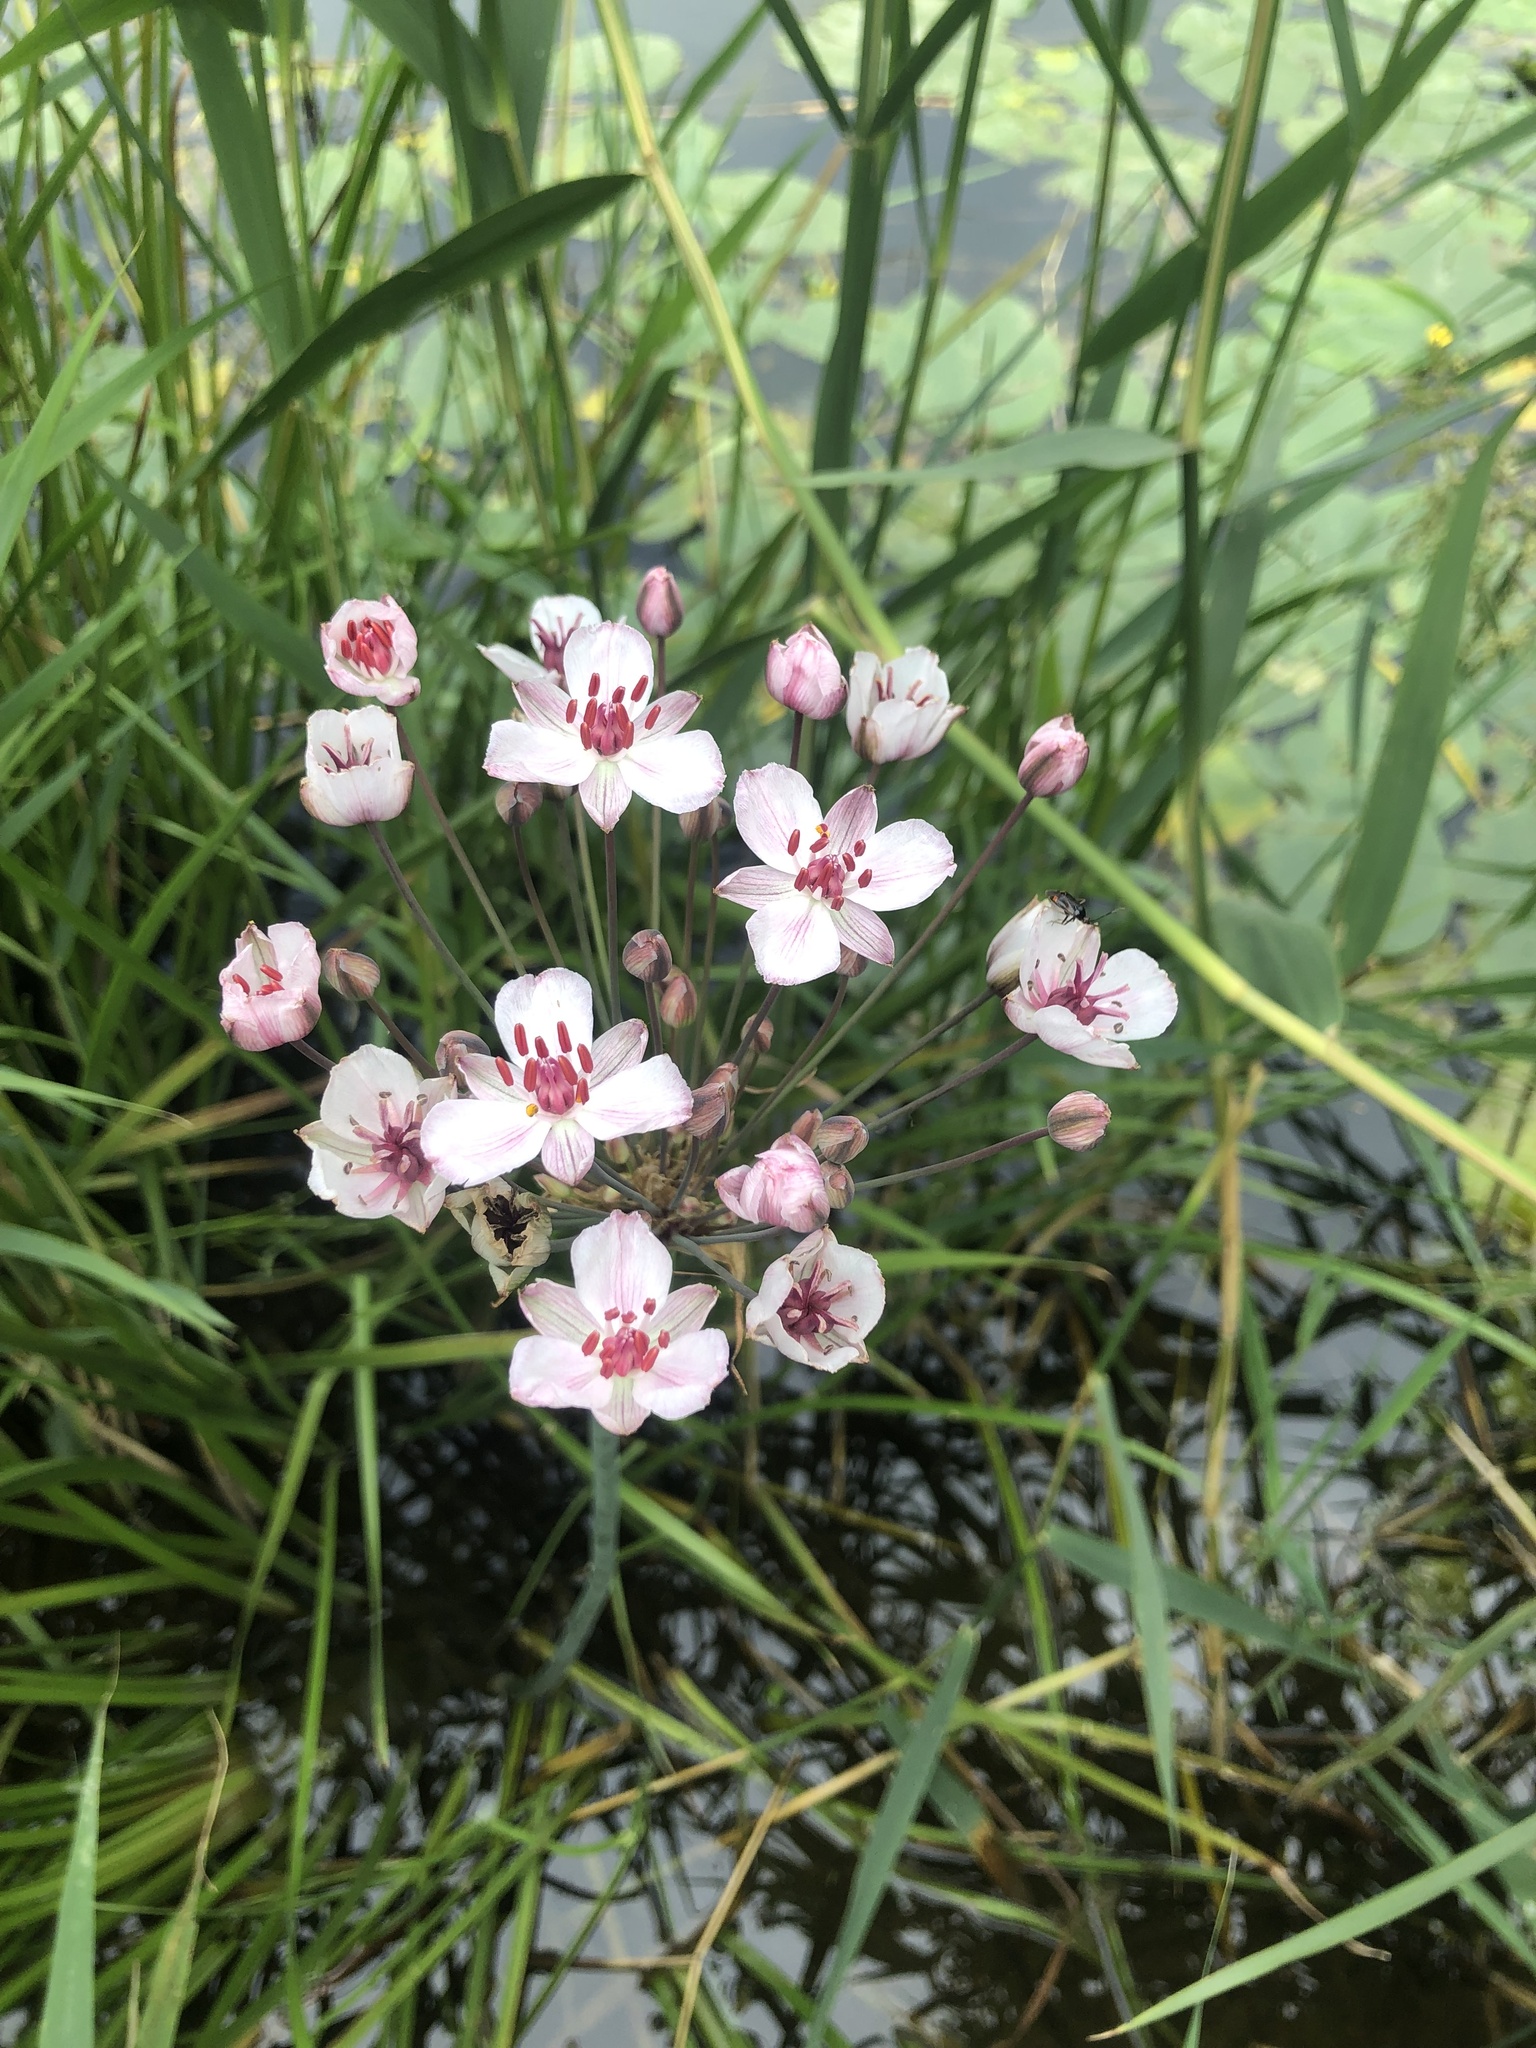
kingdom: Plantae
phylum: Tracheophyta
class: Liliopsida
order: Alismatales
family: Butomaceae
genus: Butomus
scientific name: Butomus umbellatus
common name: Flowering-rush
